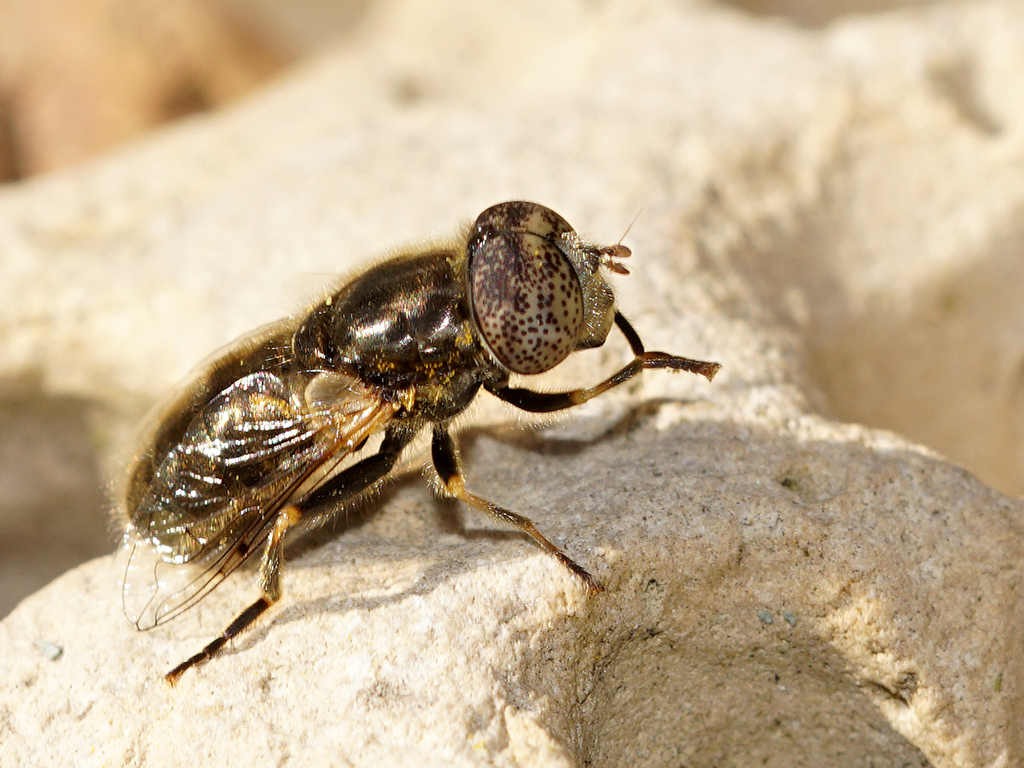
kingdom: Animalia
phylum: Arthropoda
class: Insecta
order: Diptera
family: Syrphidae
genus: Eristalinus
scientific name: Eristalinus aeneus
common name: Syrphid fly
